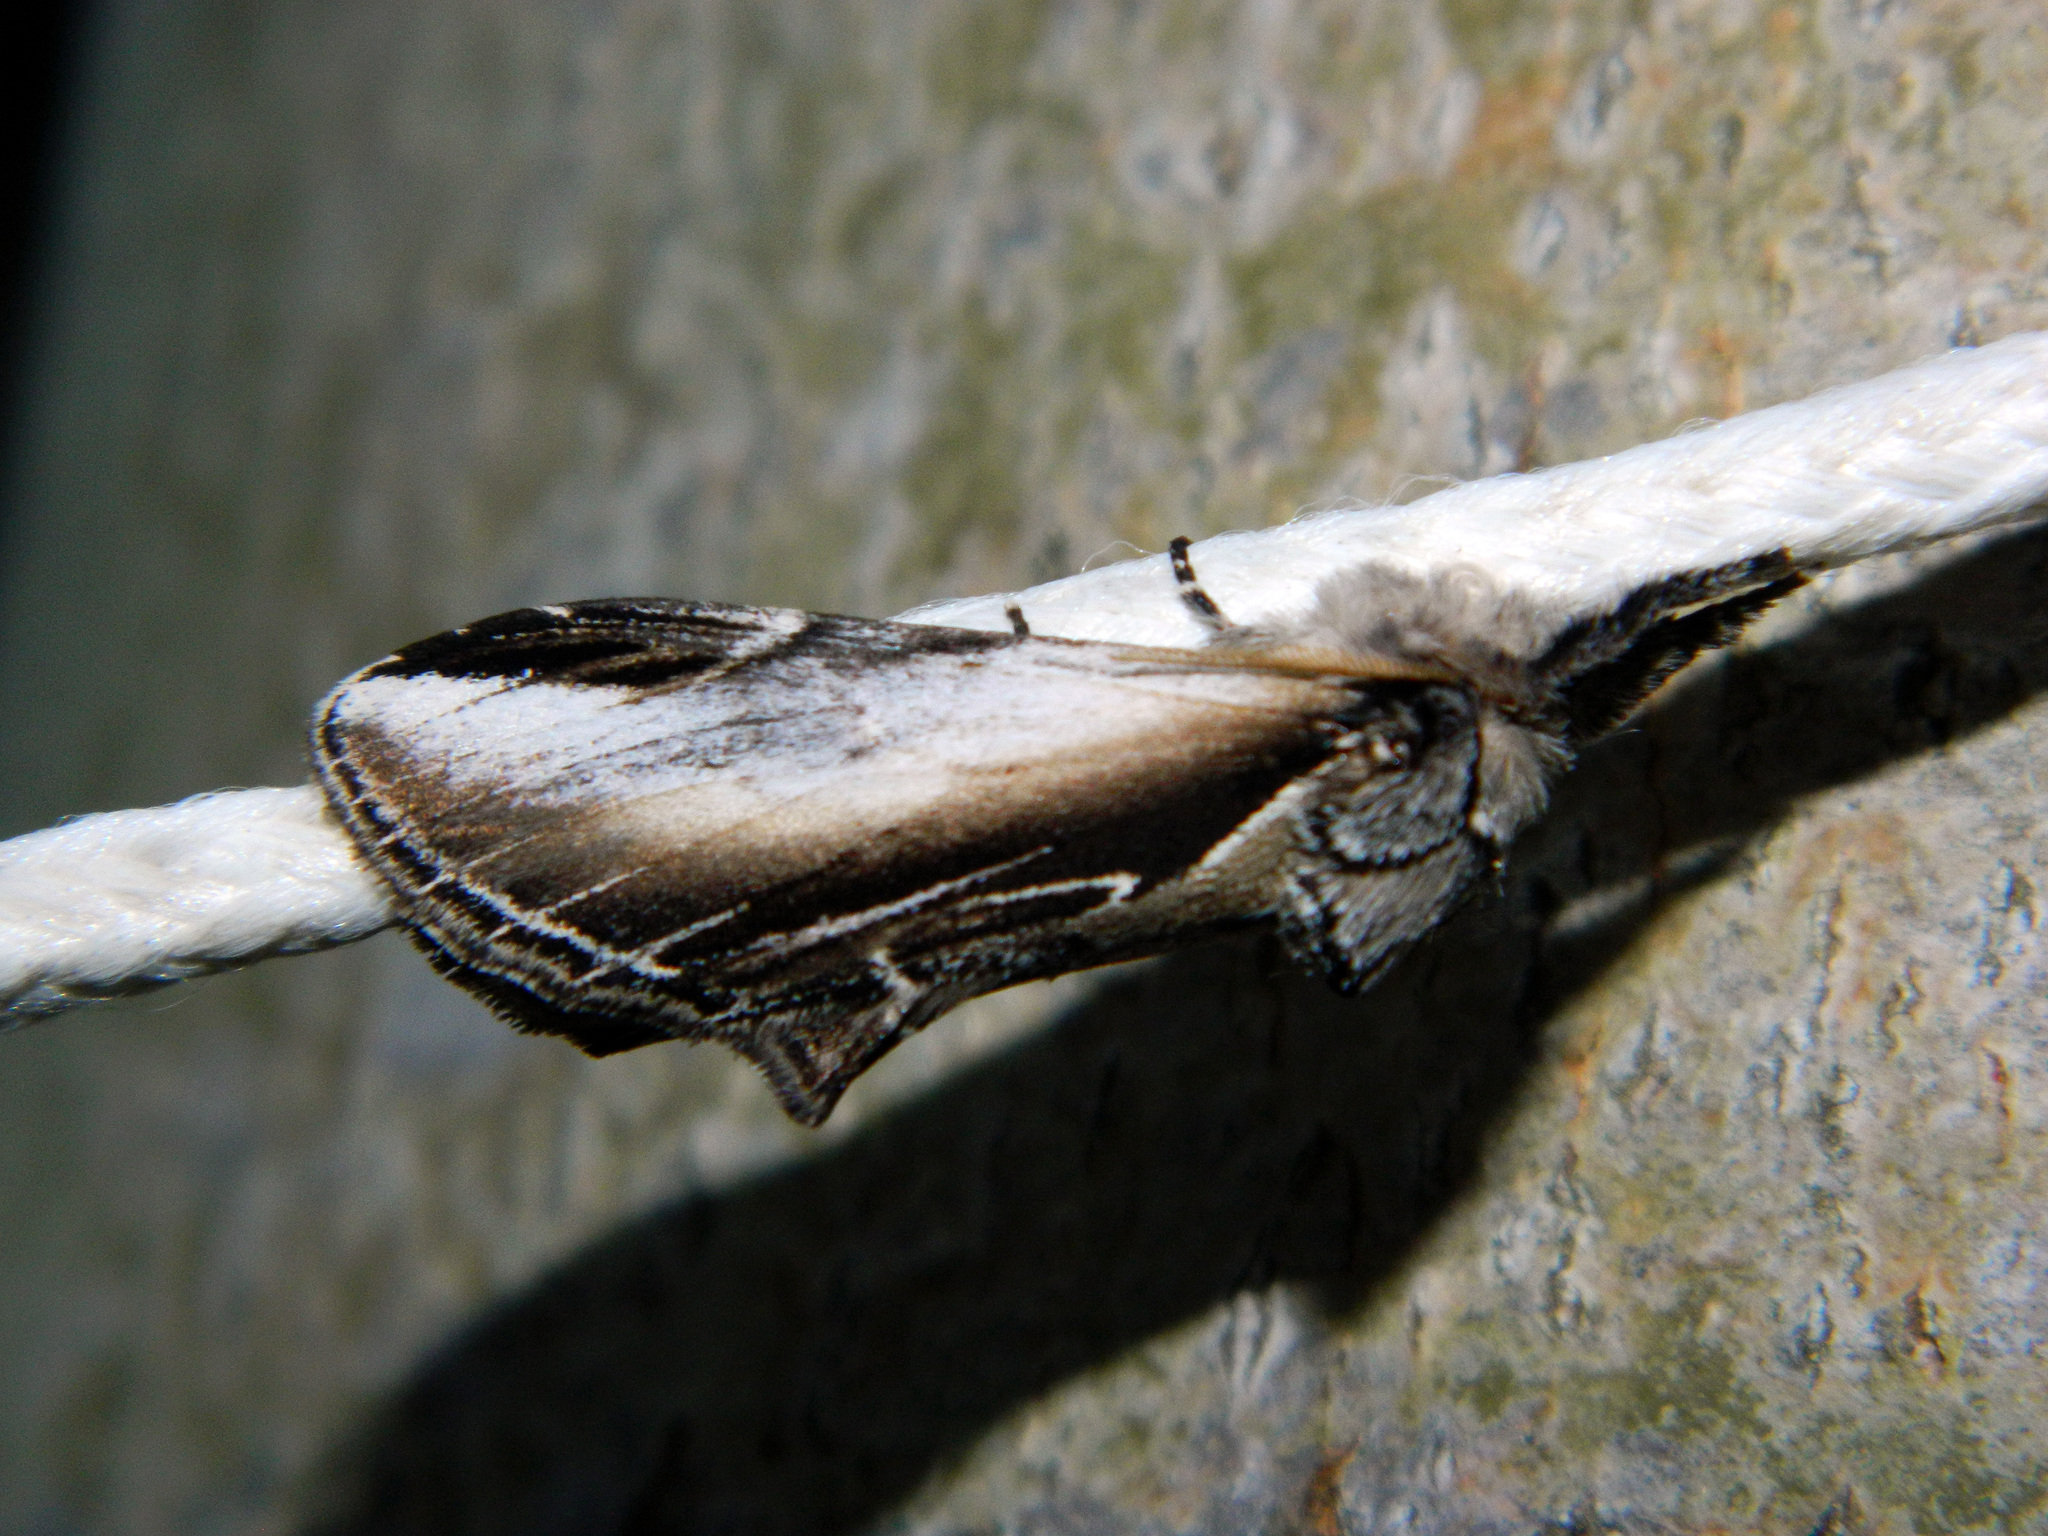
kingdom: Animalia
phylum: Arthropoda
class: Insecta
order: Lepidoptera
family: Notodontidae
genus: Pheosia
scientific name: Pheosia rimosa
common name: Black-rimmed prominent
